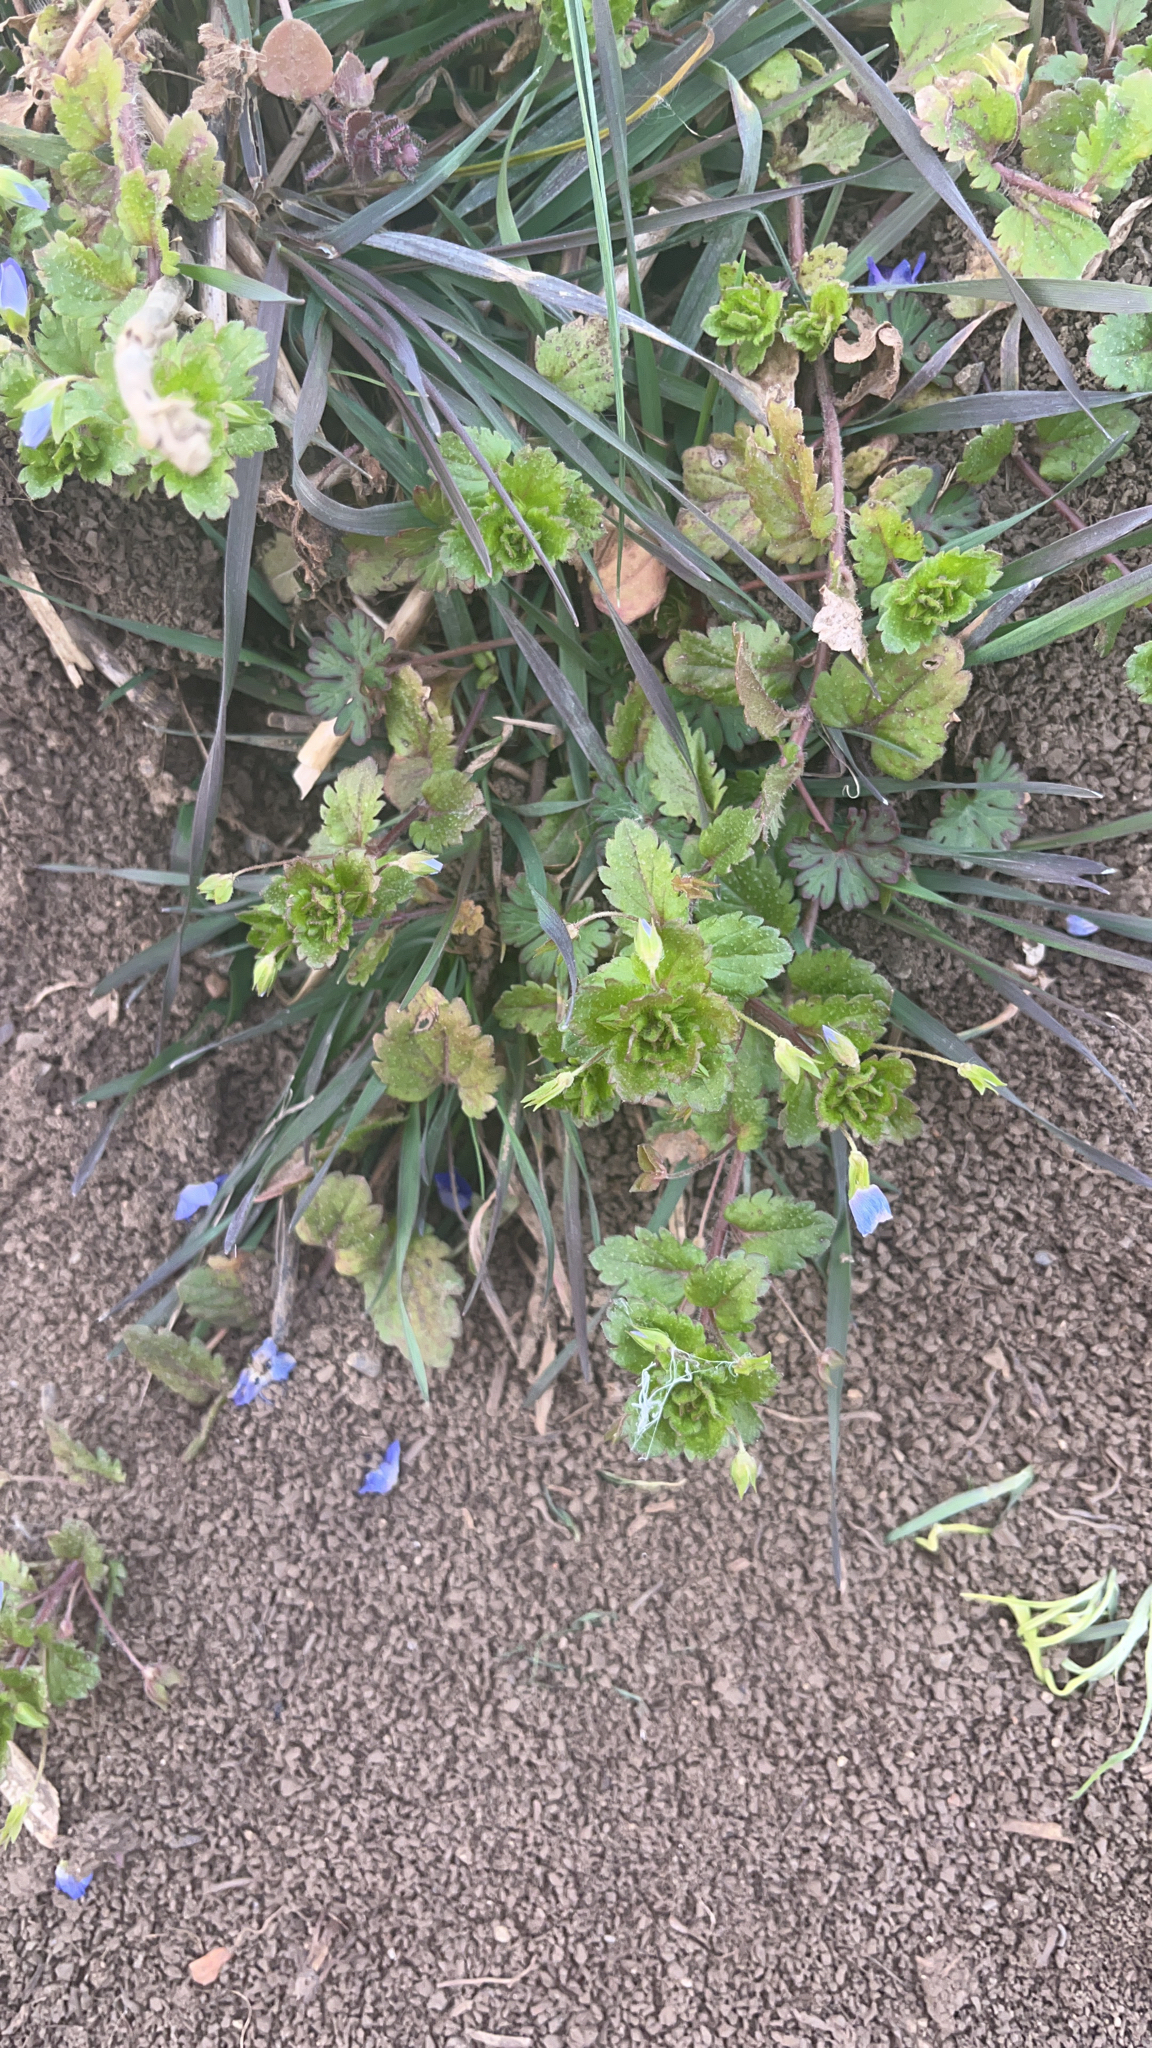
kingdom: Plantae
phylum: Tracheophyta
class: Magnoliopsida
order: Lamiales
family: Plantaginaceae
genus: Veronica
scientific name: Veronica persica
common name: Common field-speedwell
